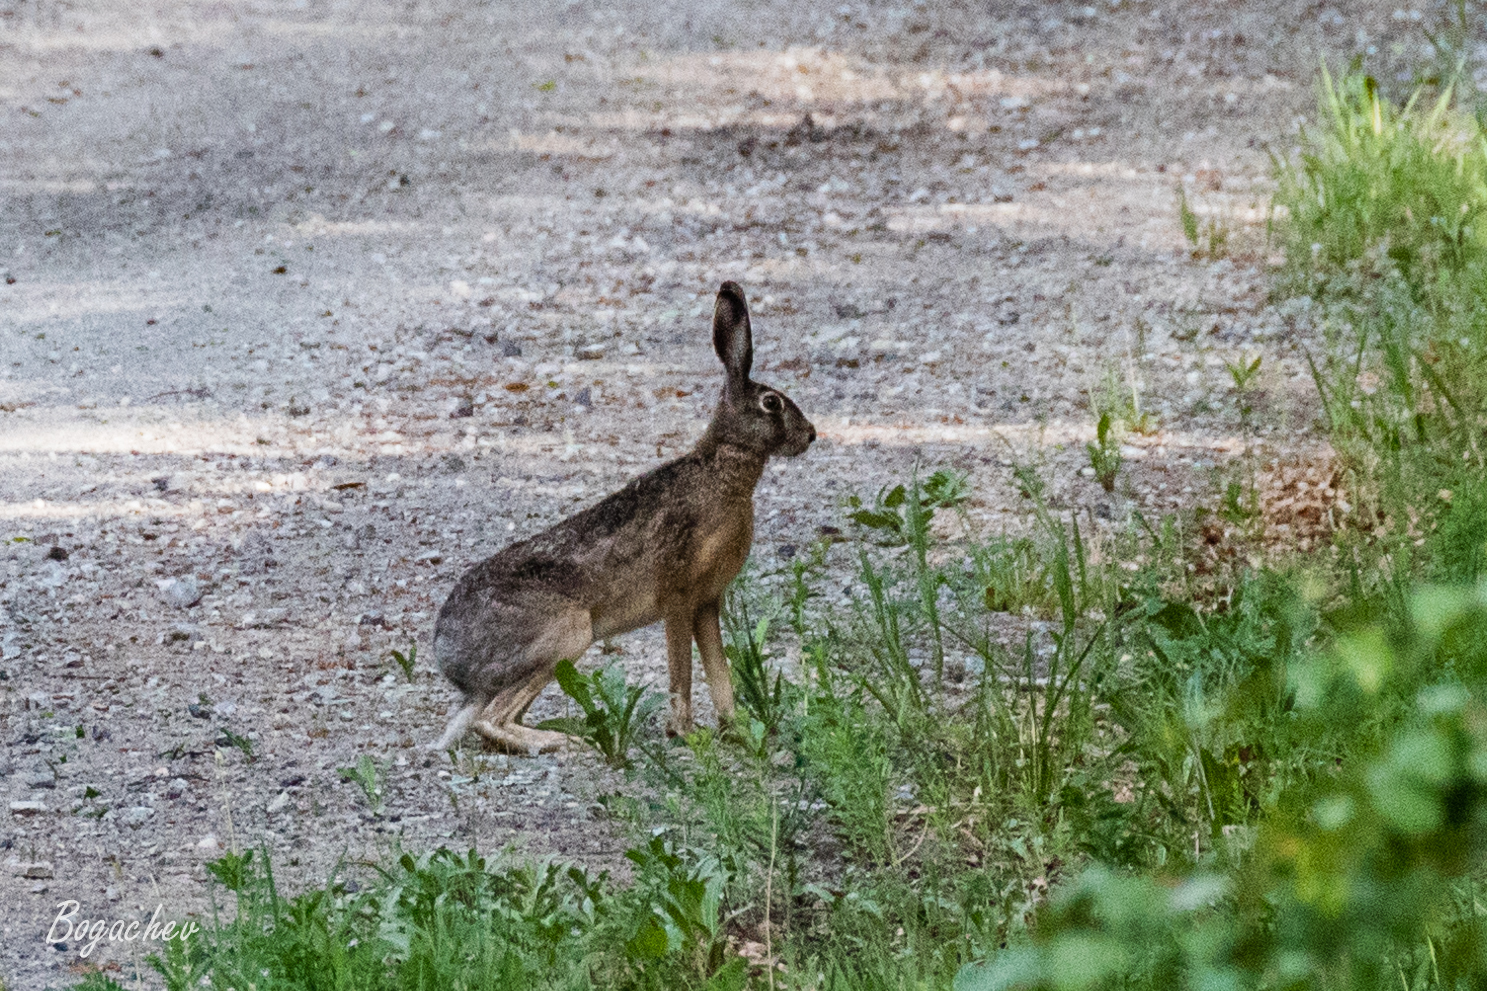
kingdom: Animalia
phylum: Chordata
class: Mammalia
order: Lagomorpha
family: Leporidae
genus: Lepus
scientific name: Lepus europaeus
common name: European hare
